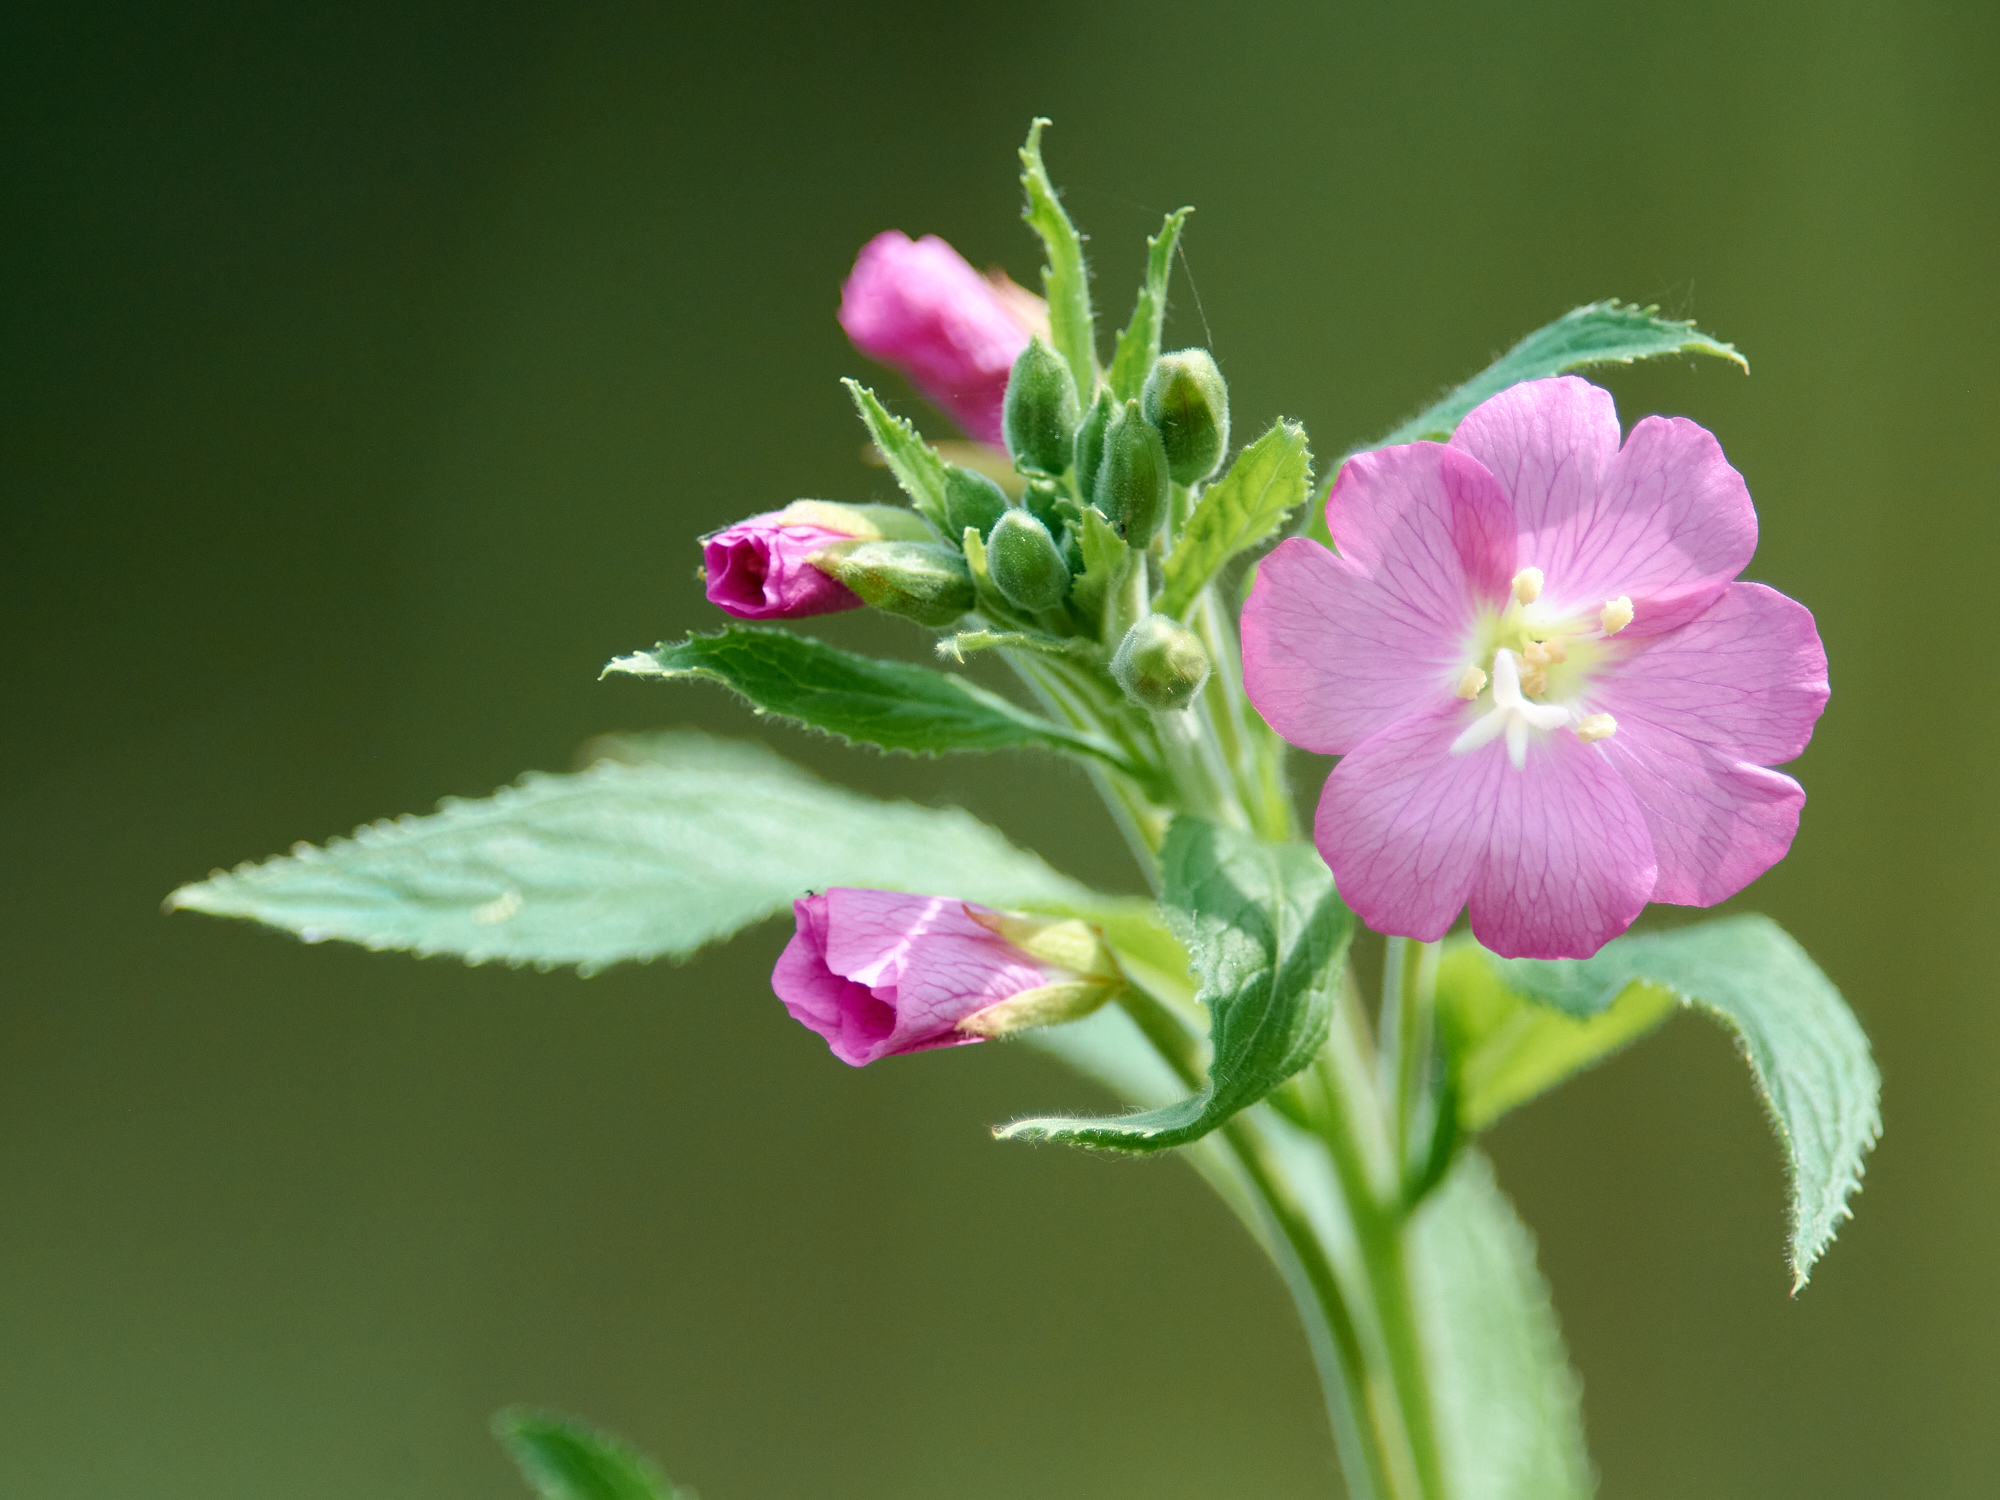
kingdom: Plantae
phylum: Tracheophyta
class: Magnoliopsida
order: Myrtales
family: Onagraceae
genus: Epilobium
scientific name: Epilobium hirsutum
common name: Great willowherb
